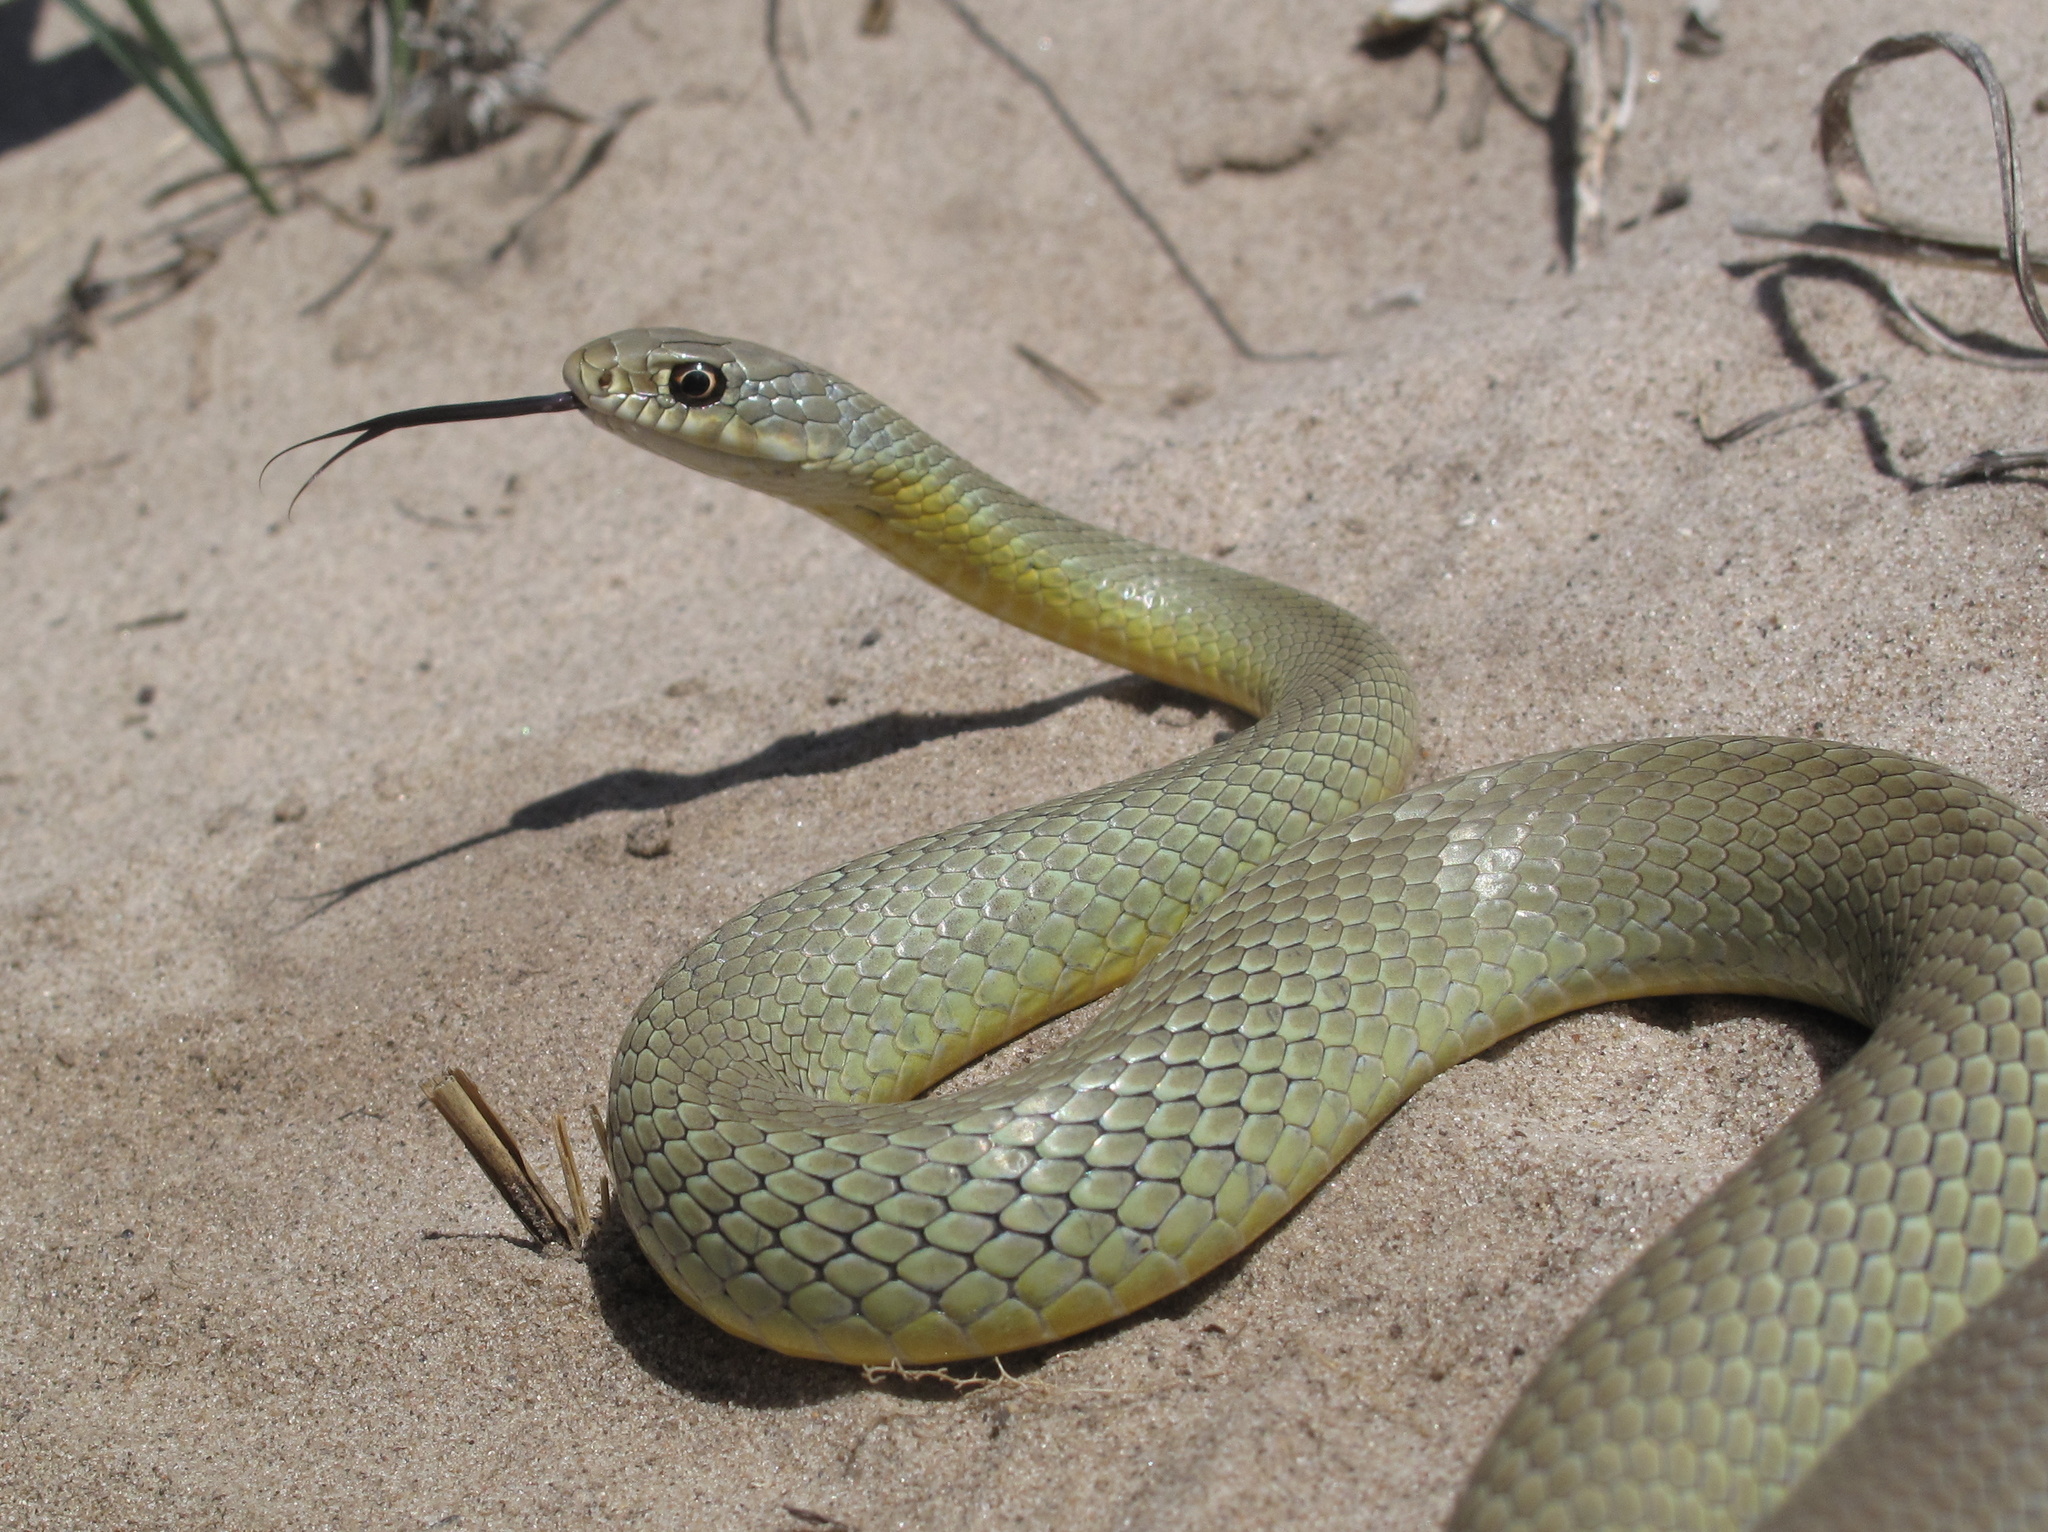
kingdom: Animalia
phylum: Chordata
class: Squamata
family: Colubridae
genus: Coluber
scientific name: Coluber constrictor
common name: Eastern racer
